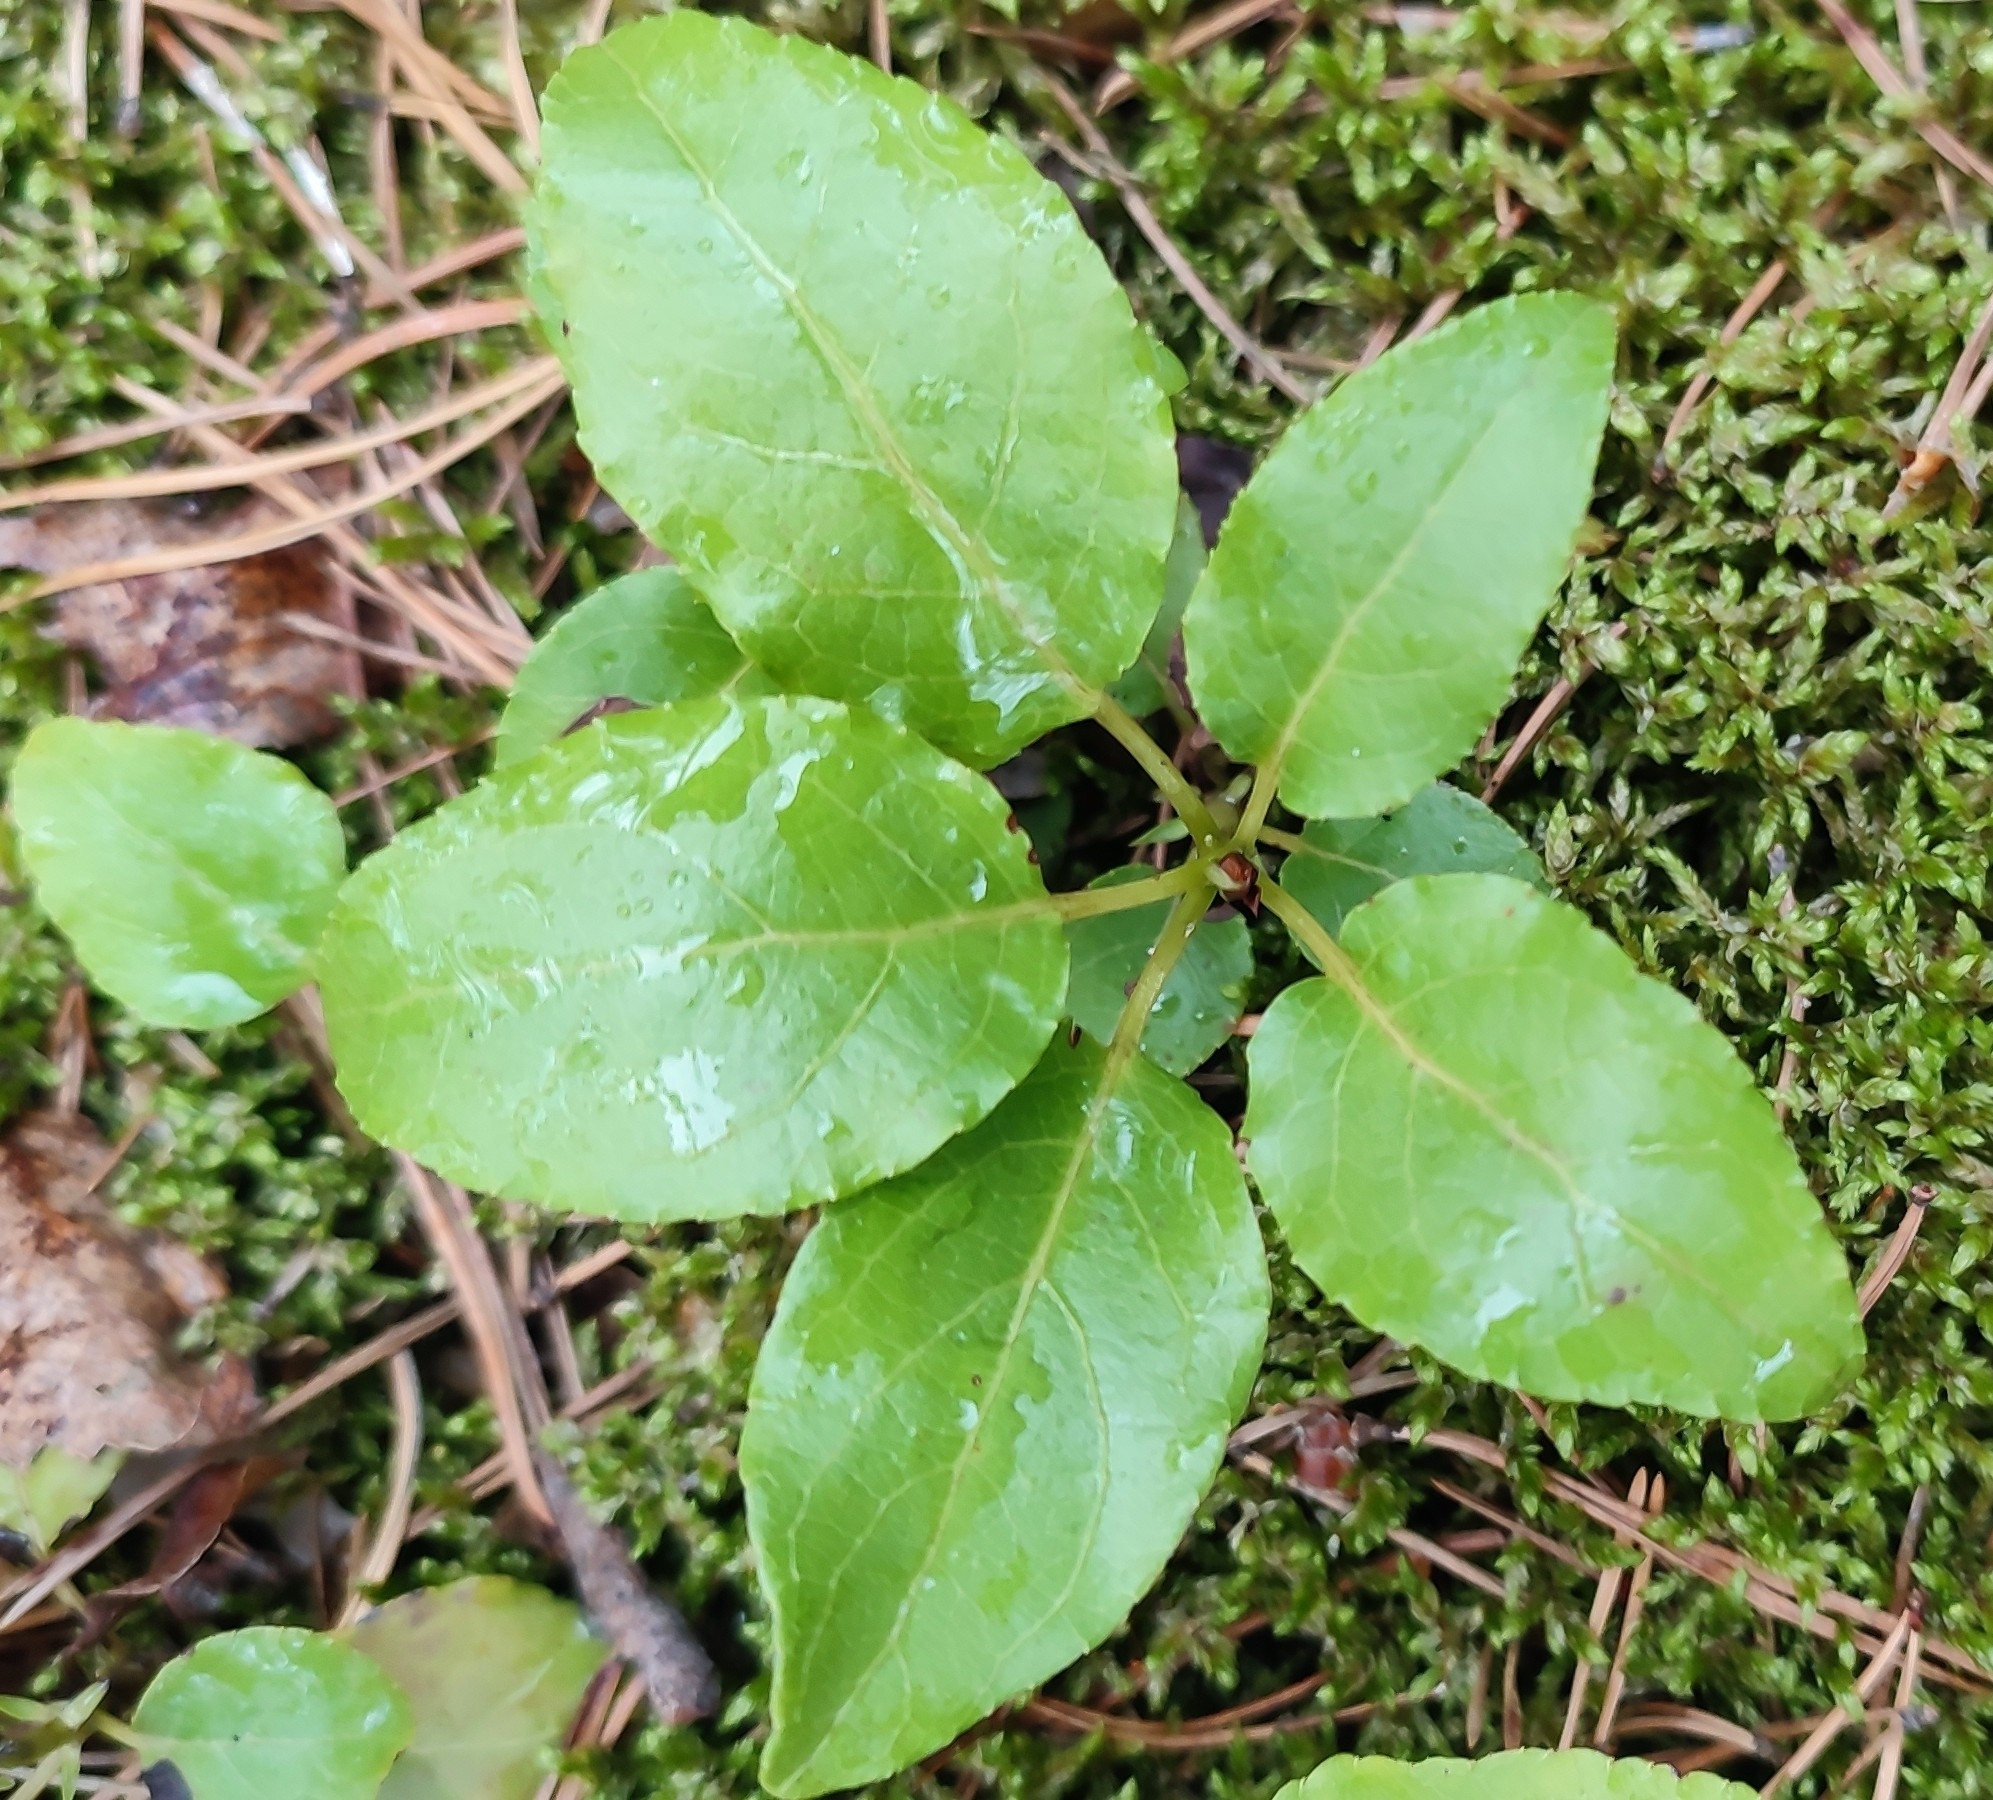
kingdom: Plantae
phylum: Tracheophyta
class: Magnoliopsida
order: Ericales
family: Ericaceae
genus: Orthilia
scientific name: Orthilia secunda
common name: One-sided orthilia
